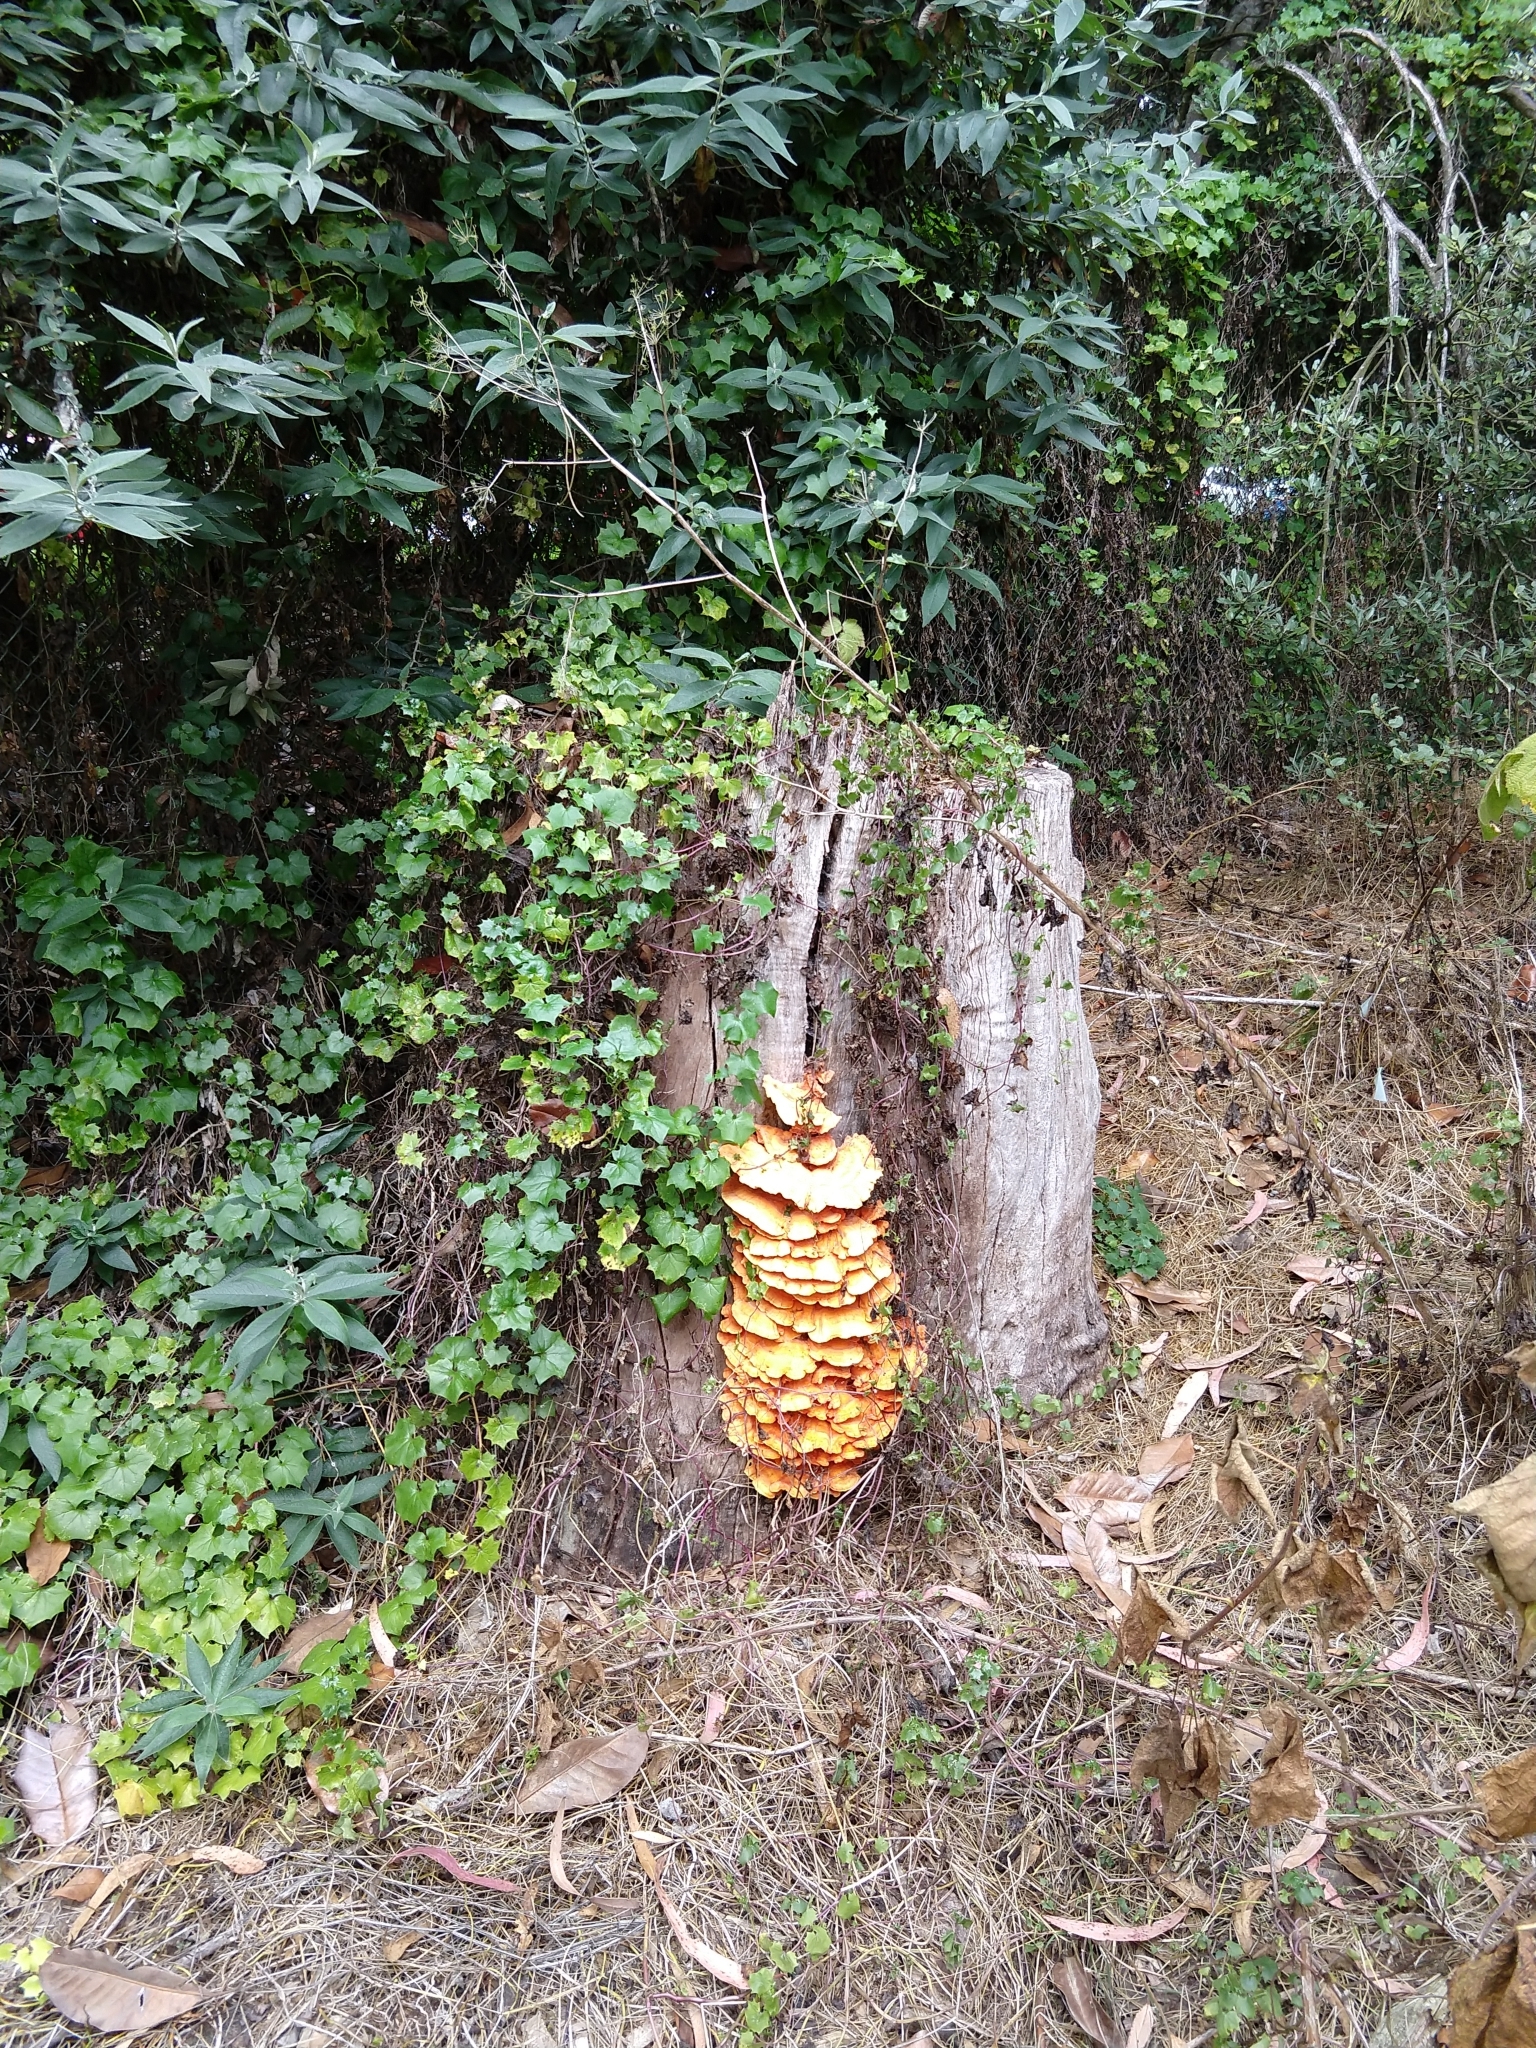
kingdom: Fungi
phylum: Basidiomycota
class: Agaricomycetes
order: Polyporales
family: Laetiporaceae
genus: Laetiporus
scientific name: Laetiporus gilbertsonii
